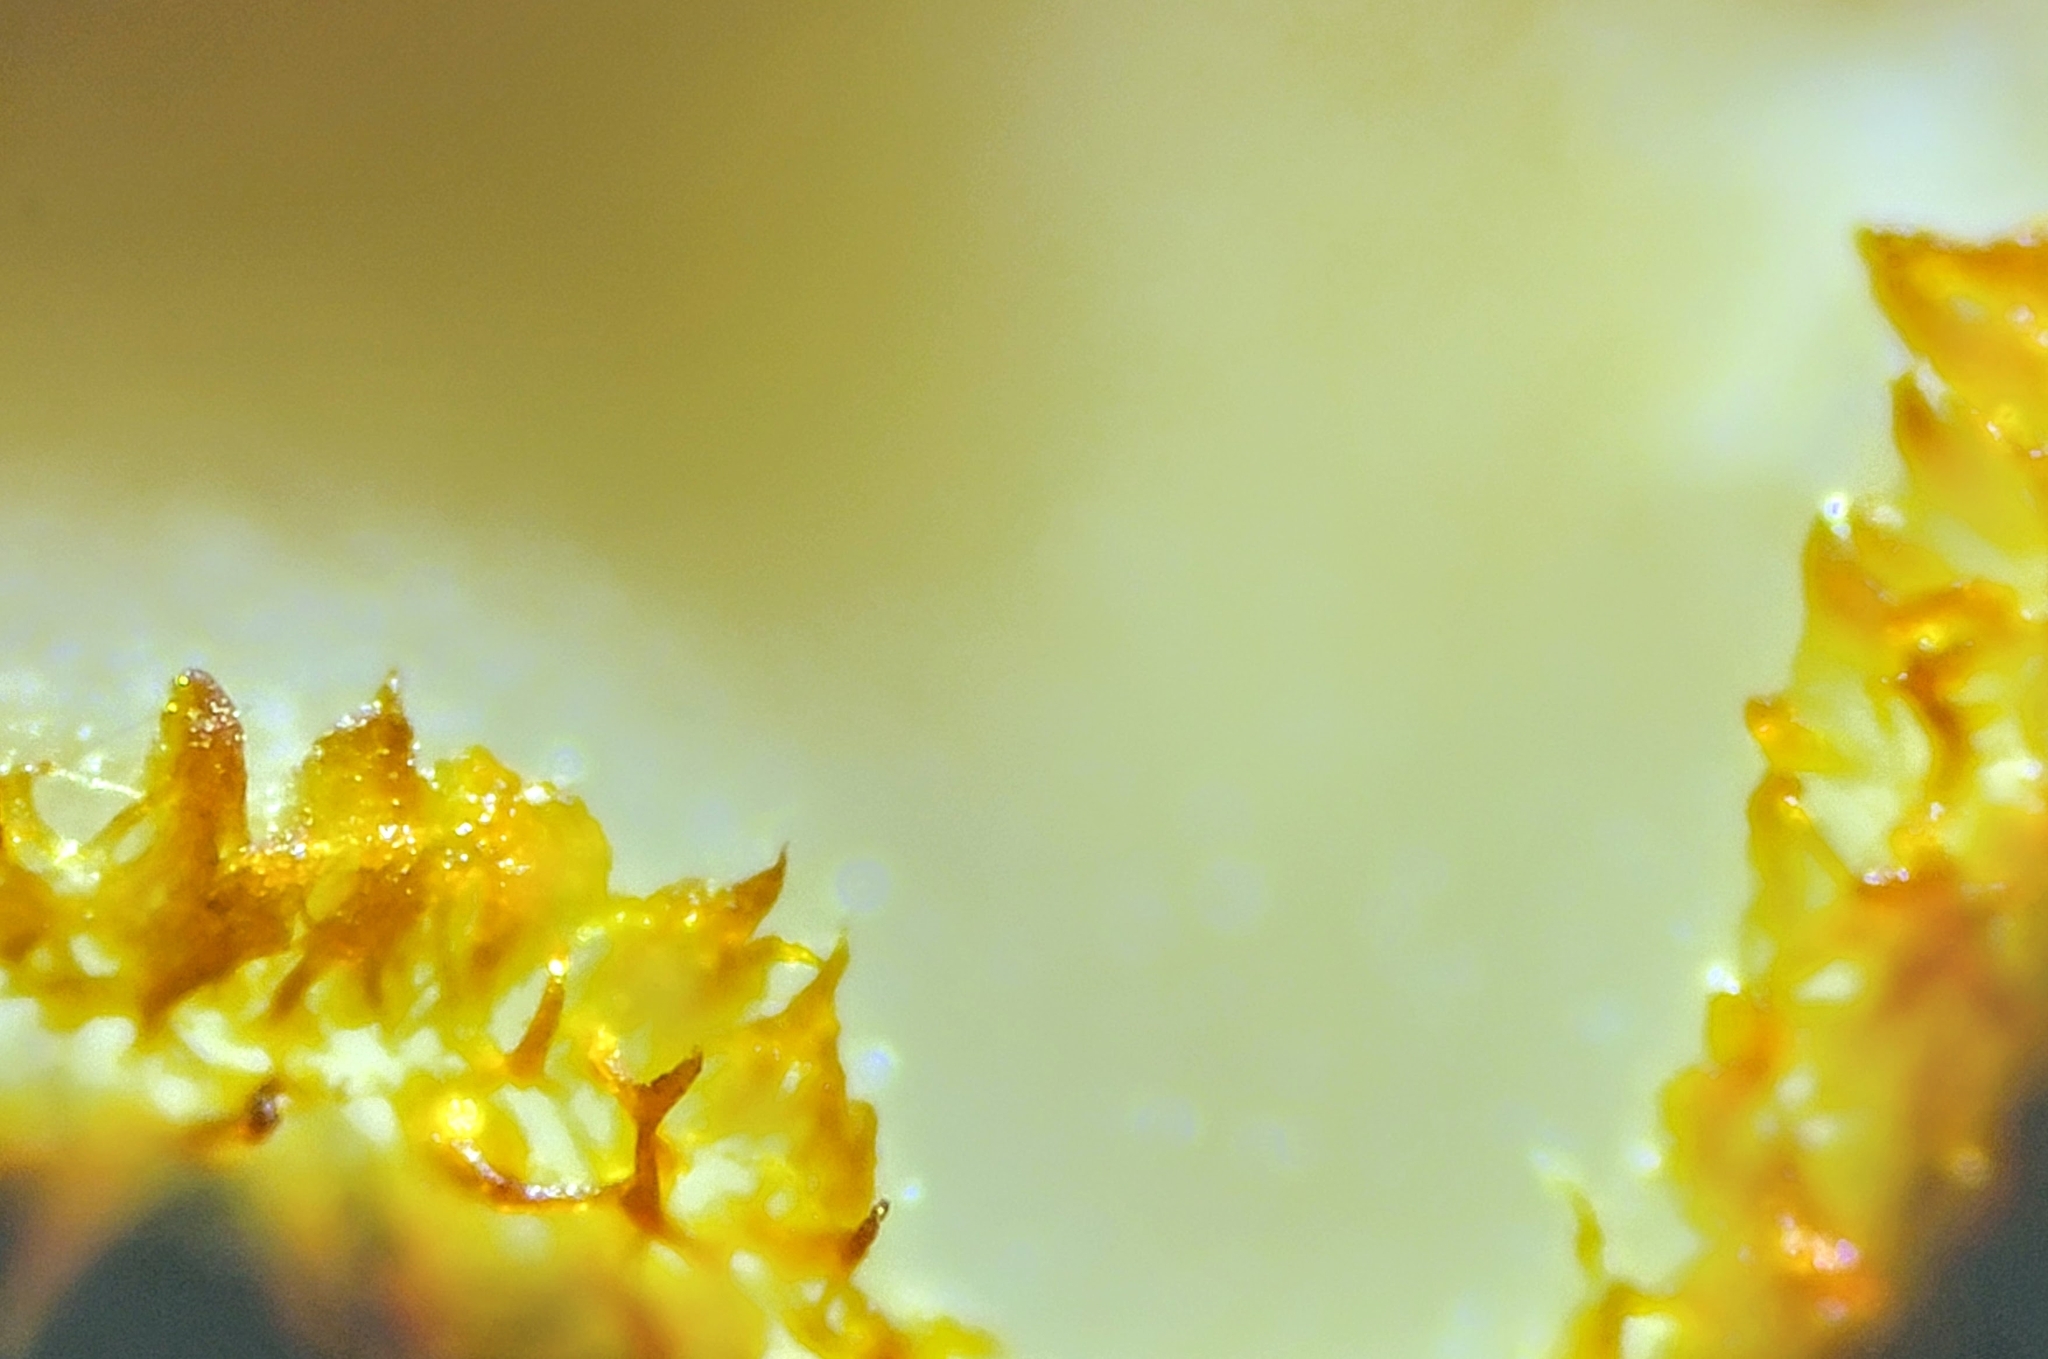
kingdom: Fungi
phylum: Ascomycota
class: Leotiomycetes
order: Helotiales
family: Arachnopezizaceae
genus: Arachnopeziza
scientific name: Arachnopeziza aurelia
